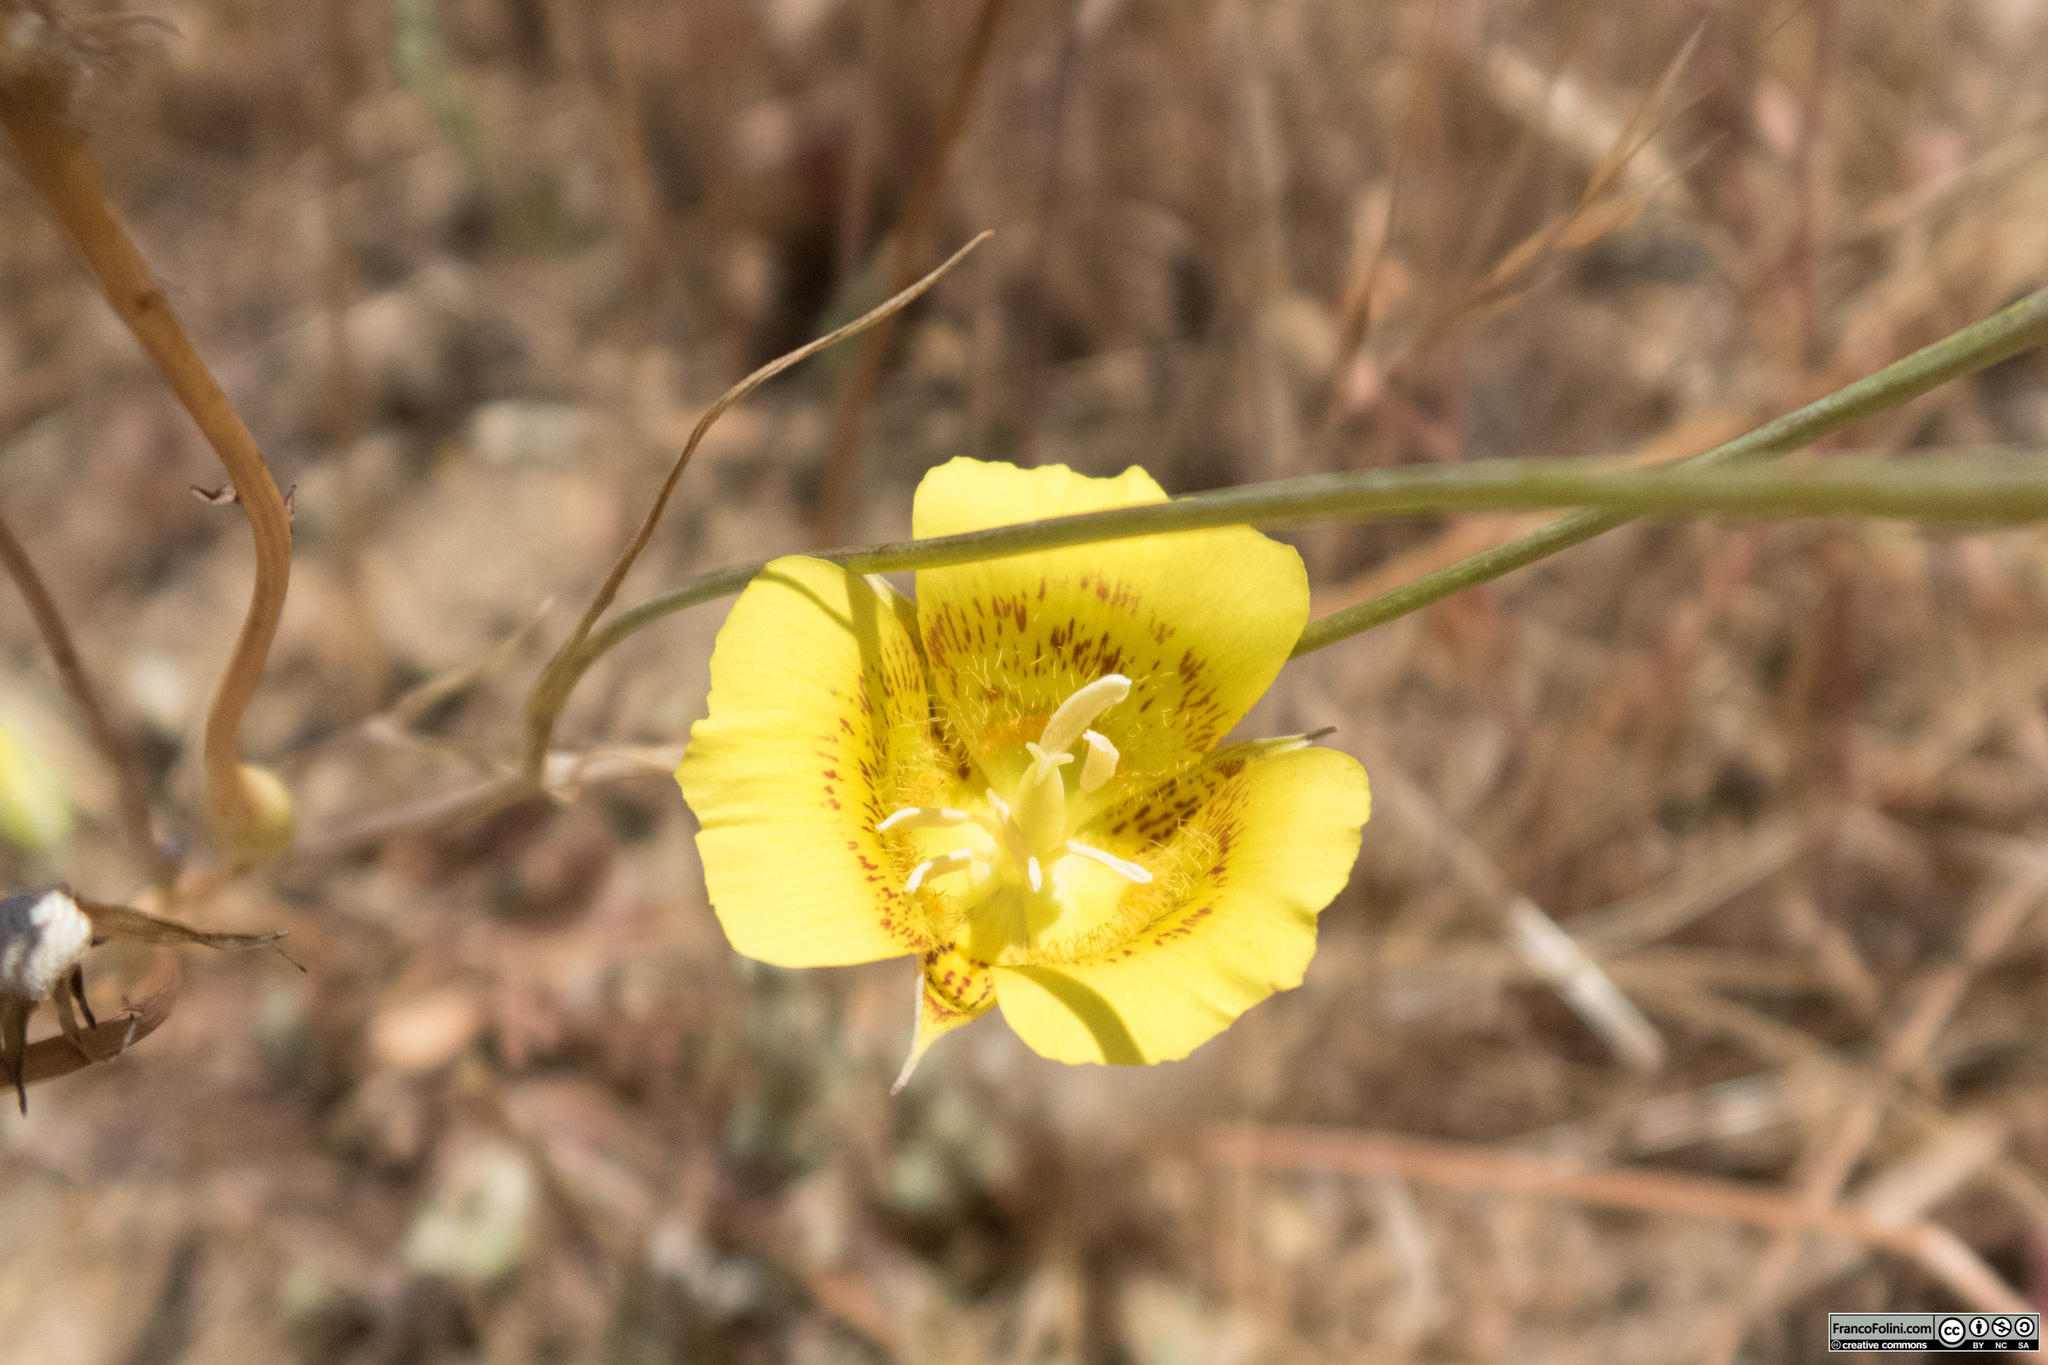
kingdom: Plantae
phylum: Tracheophyta
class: Liliopsida
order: Liliales
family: Liliaceae
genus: Calochortus
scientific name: Calochortus luteus
